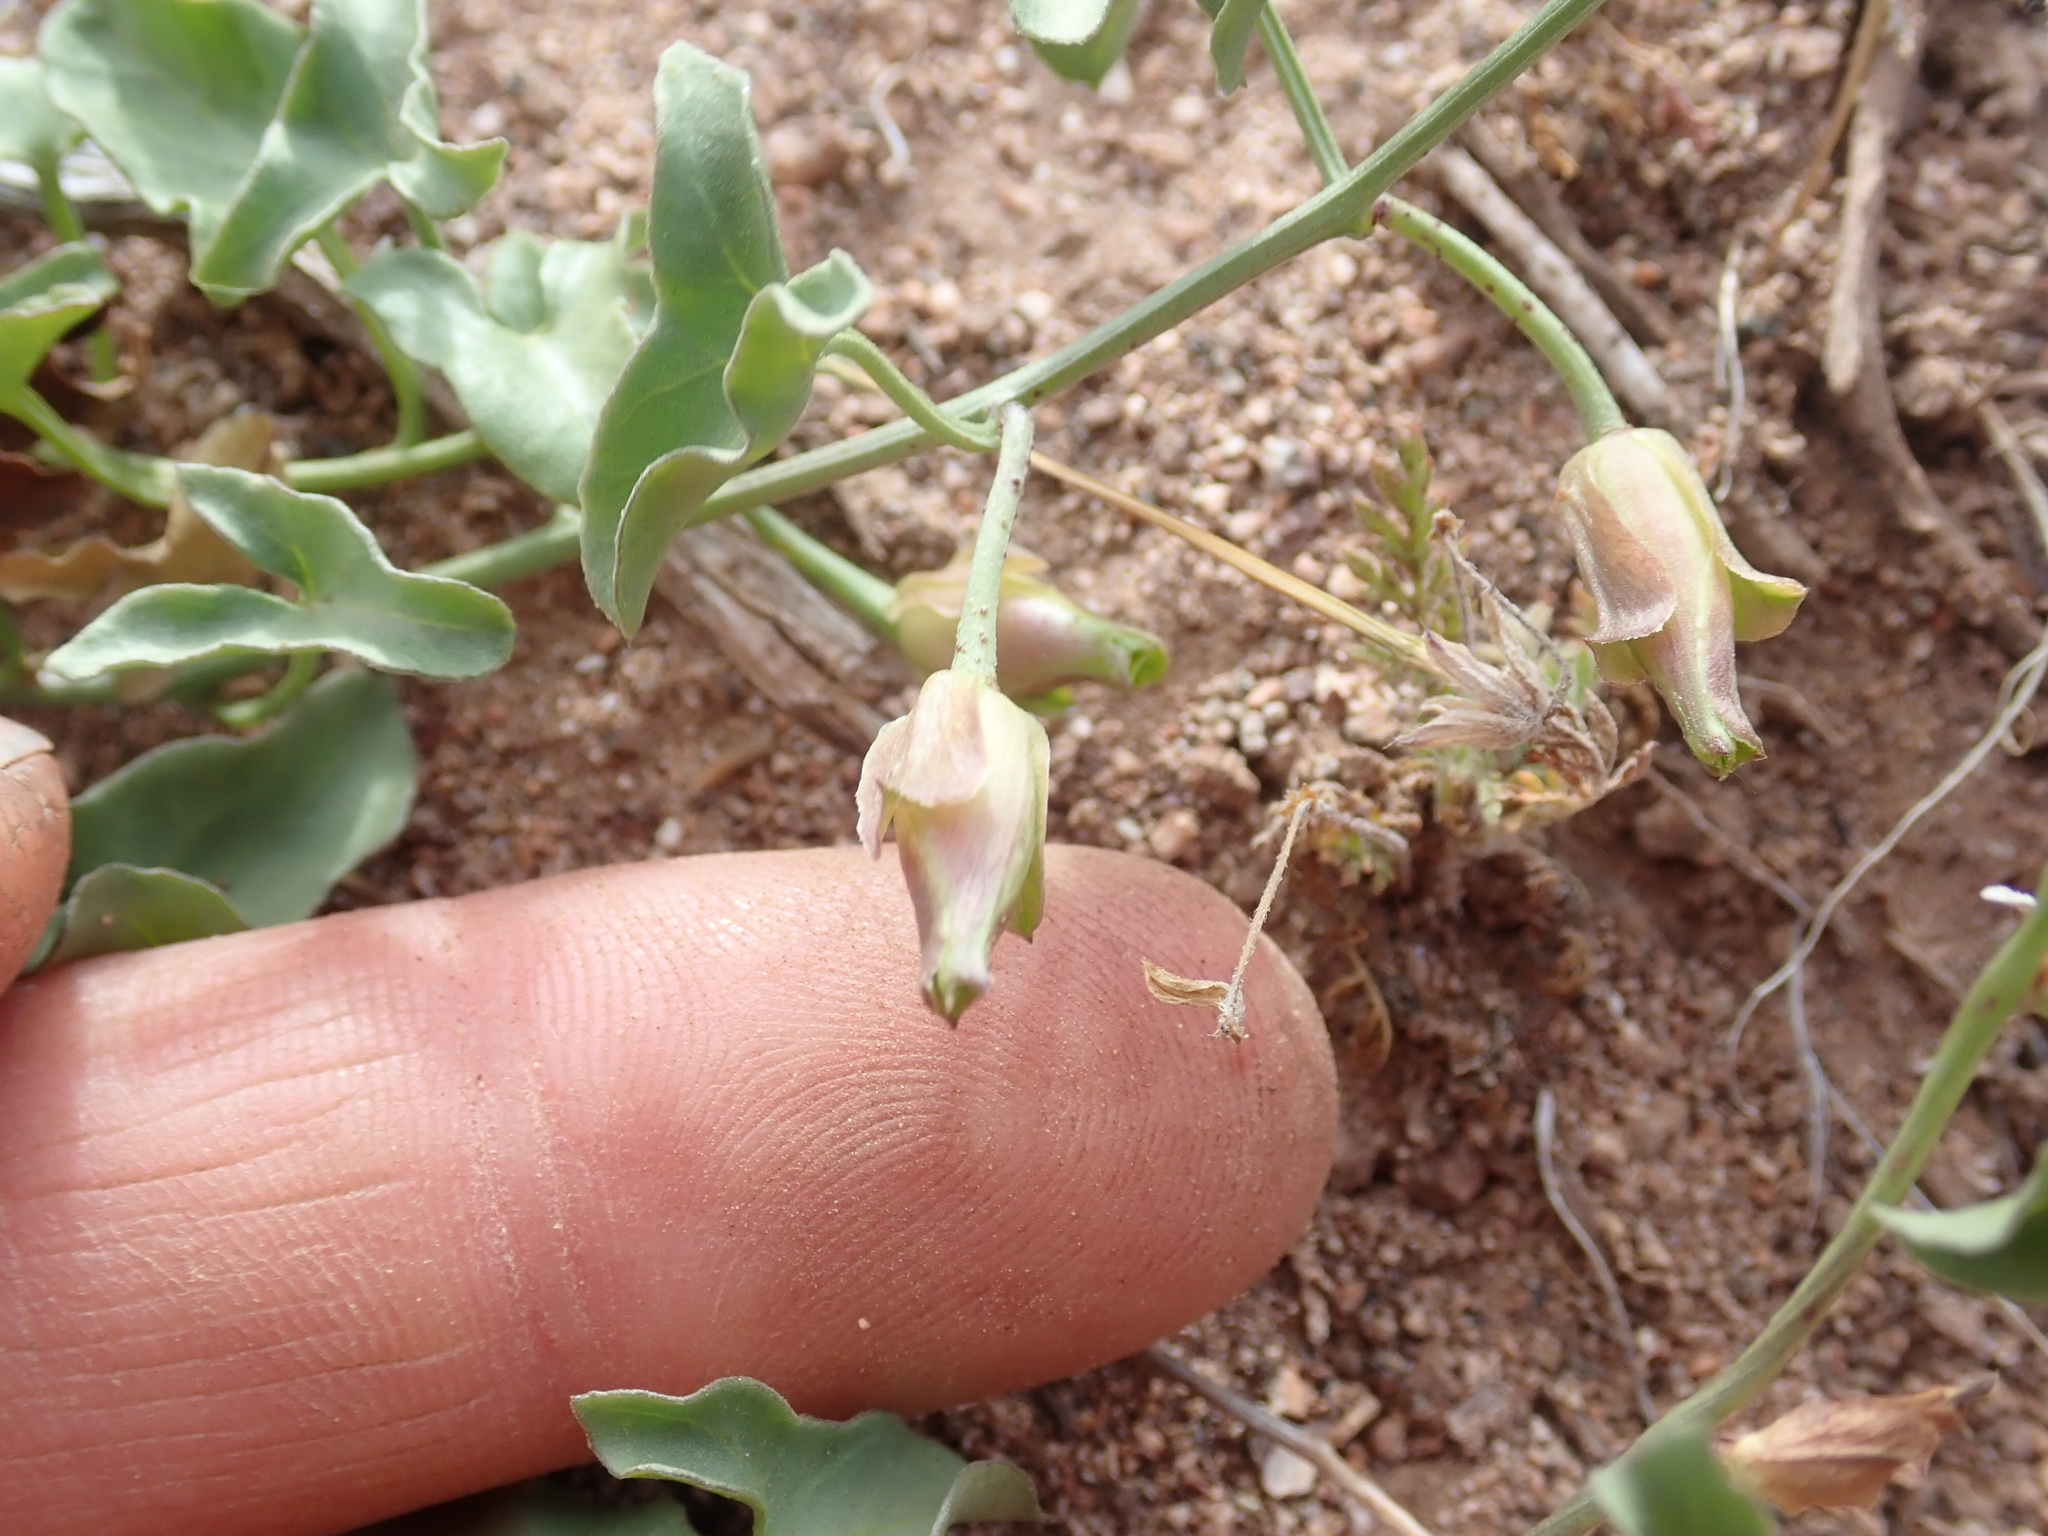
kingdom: Plantae
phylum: Tracheophyta
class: Magnoliopsida
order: Solanales
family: Convolvulaceae
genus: Calystegia
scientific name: Calystegia peirsonii
